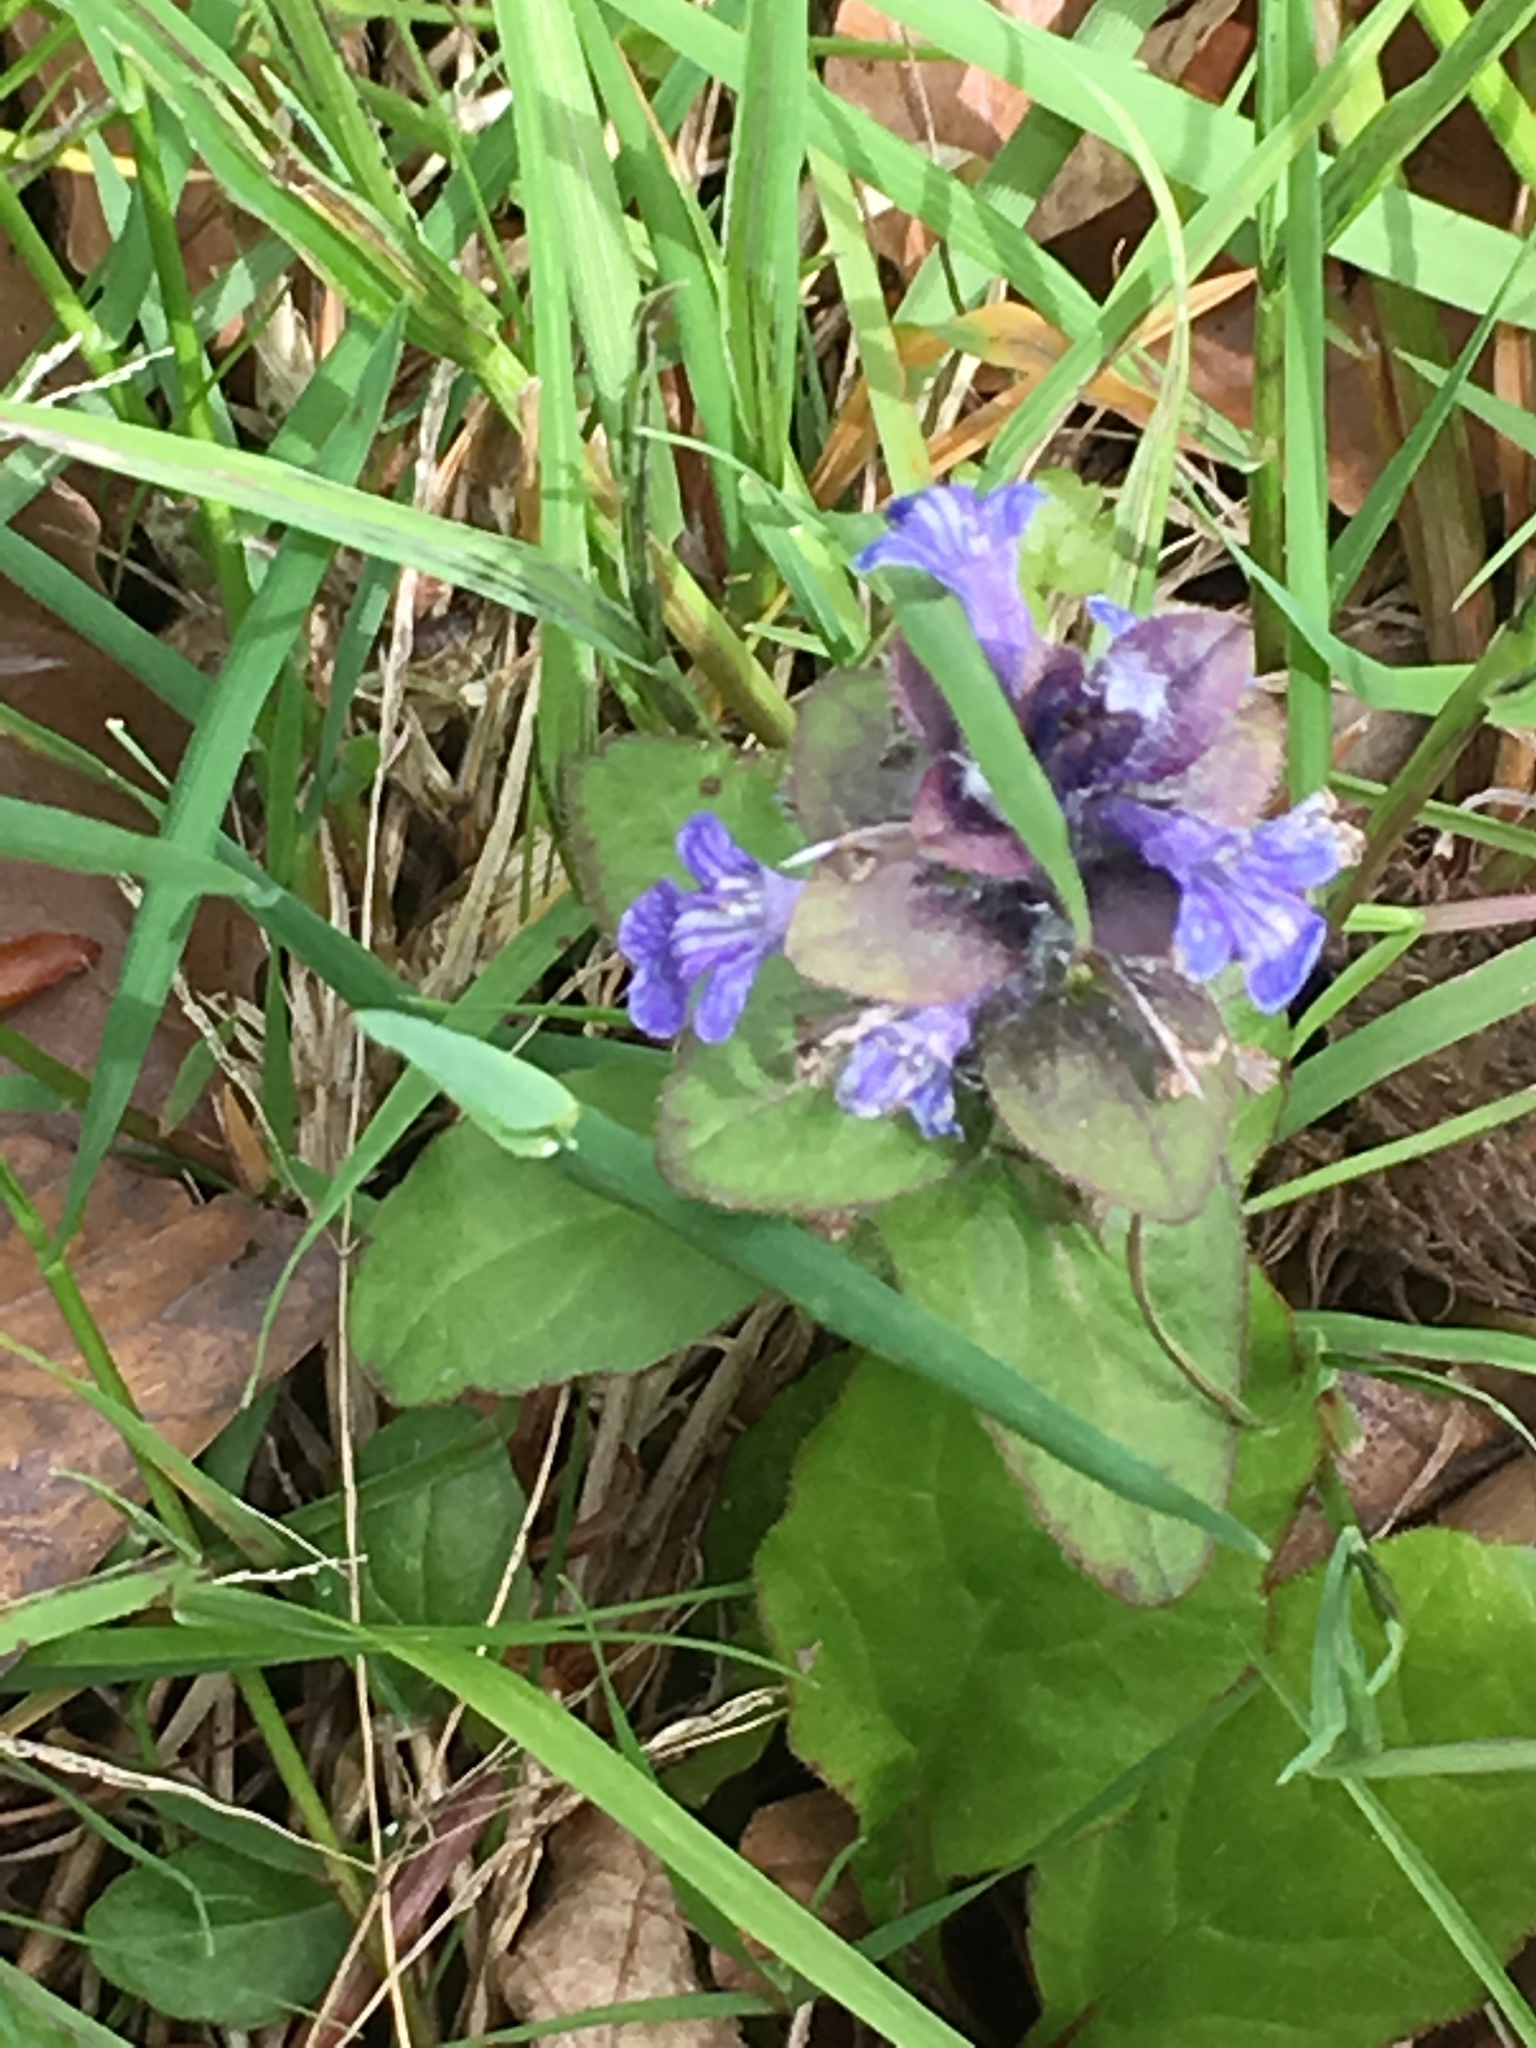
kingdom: Plantae
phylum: Tracheophyta
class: Magnoliopsida
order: Lamiales
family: Lamiaceae
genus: Ajuga
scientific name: Ajuga reptans
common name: Bugle
